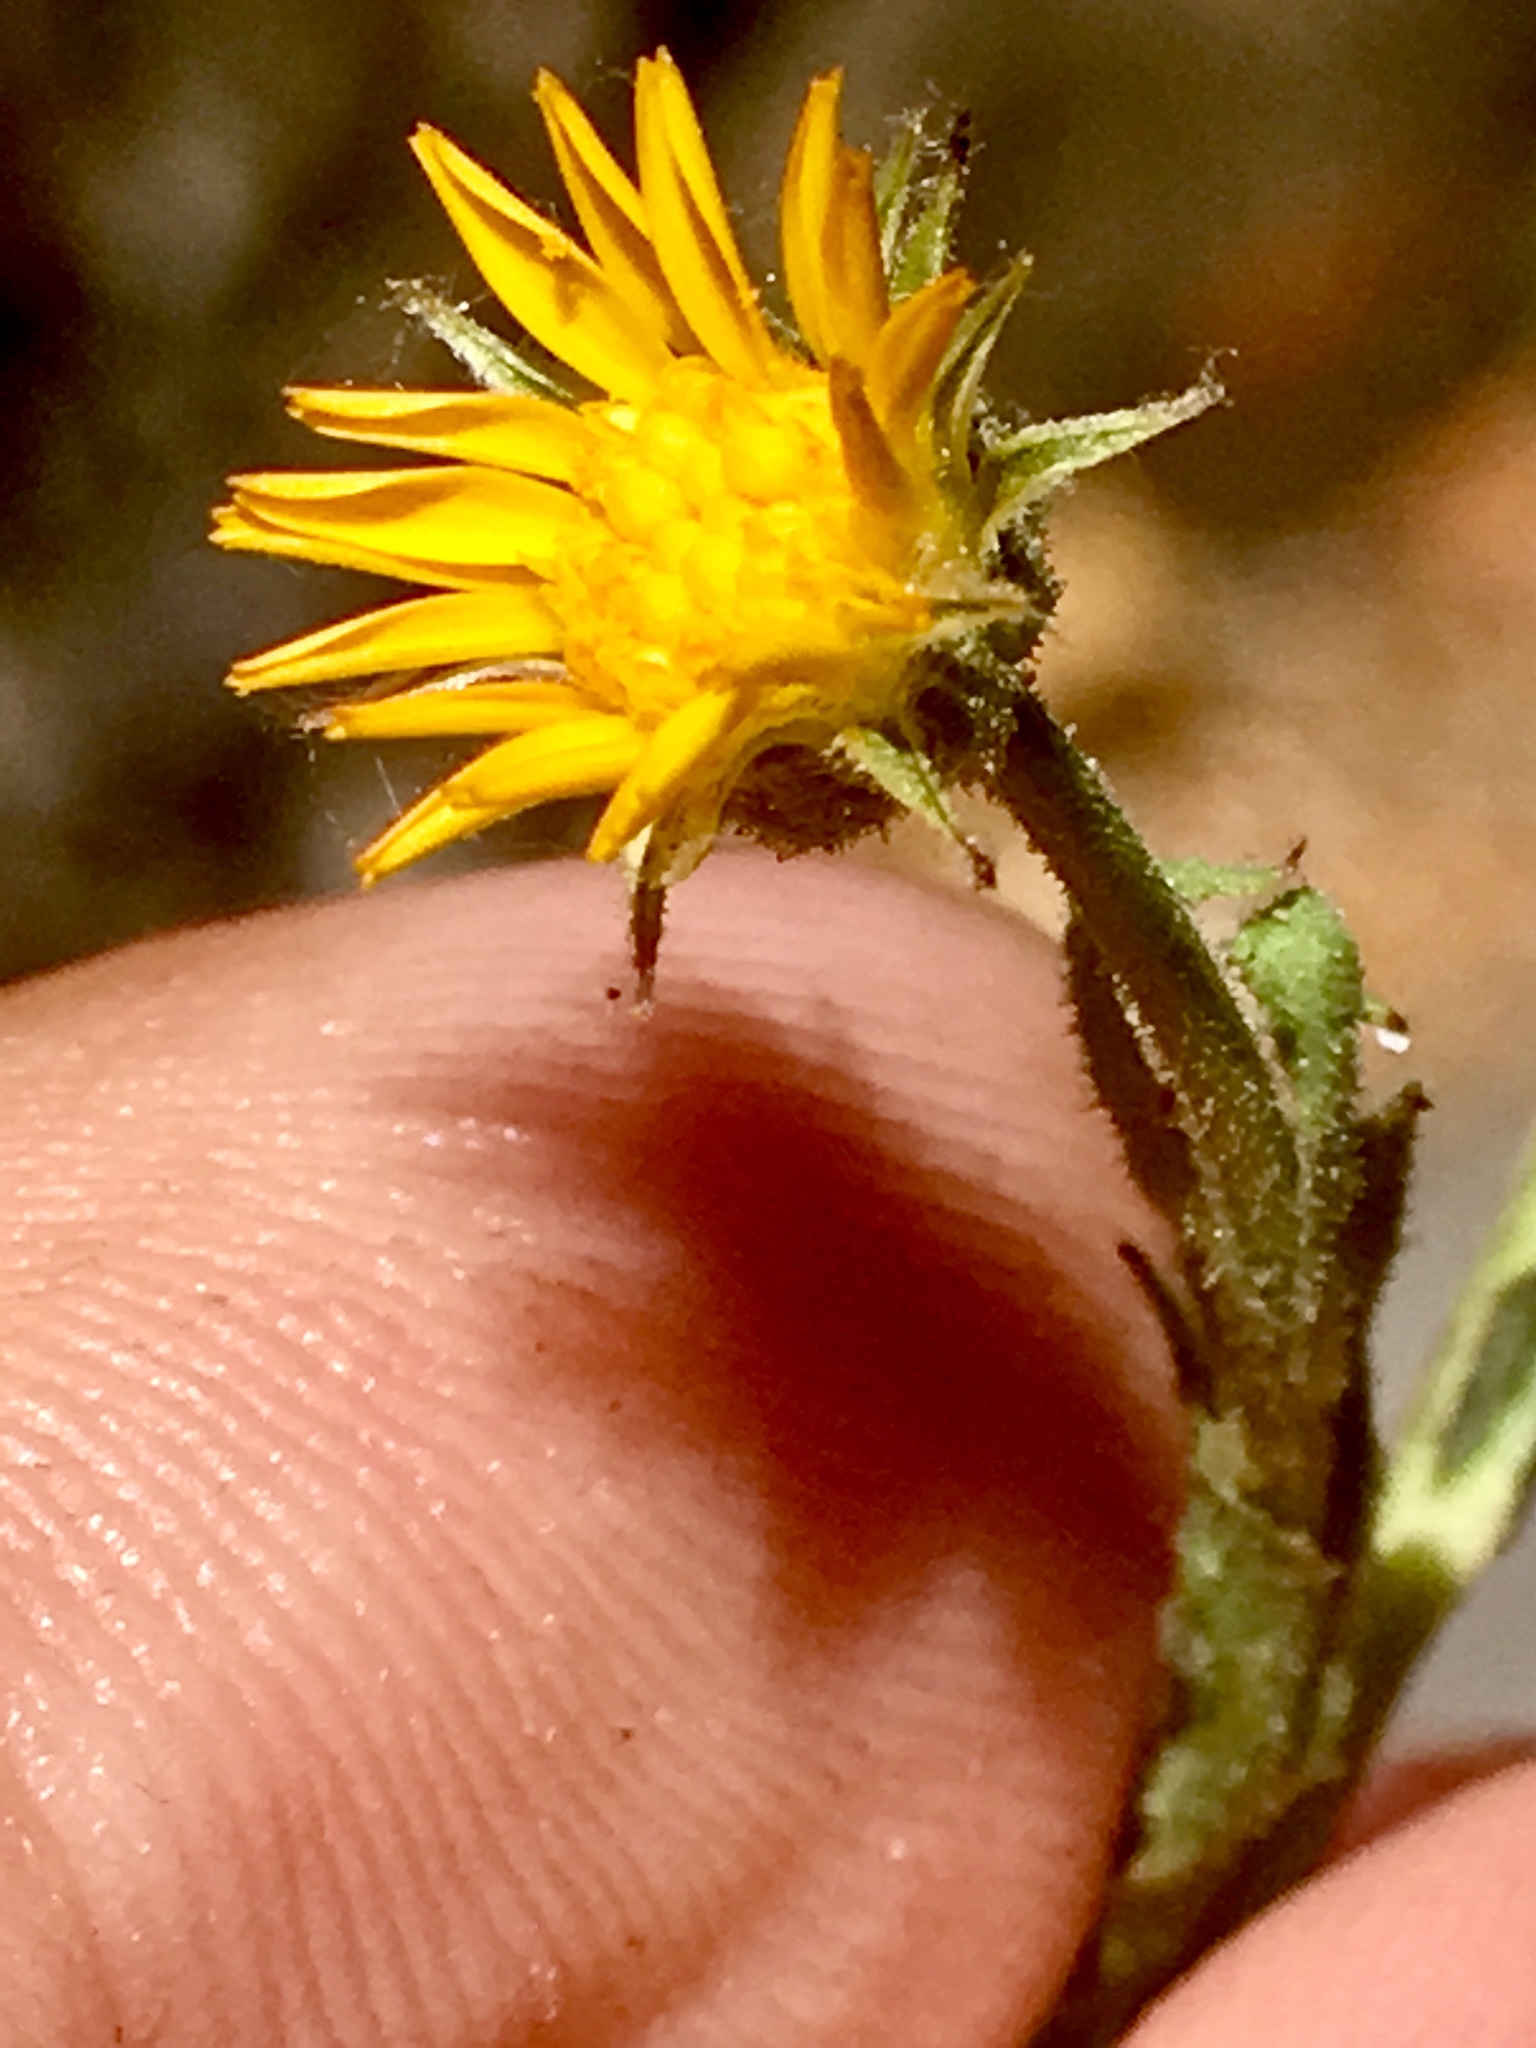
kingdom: Plantae
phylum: Tracheophyta
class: Magnoliopsida
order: Asterales
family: Asteraceae
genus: Calendula
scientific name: Calendula arvensis
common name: Field marigold
